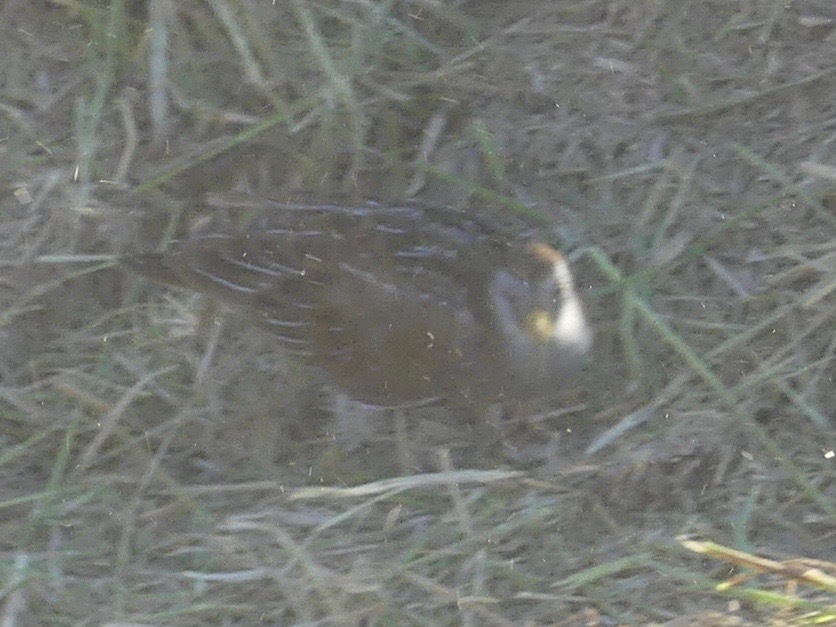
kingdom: Animalia
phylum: Chordata
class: Aves
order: Gruiformes
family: Rallidae
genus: Porzana
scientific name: Porzana carolina
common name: Sora
